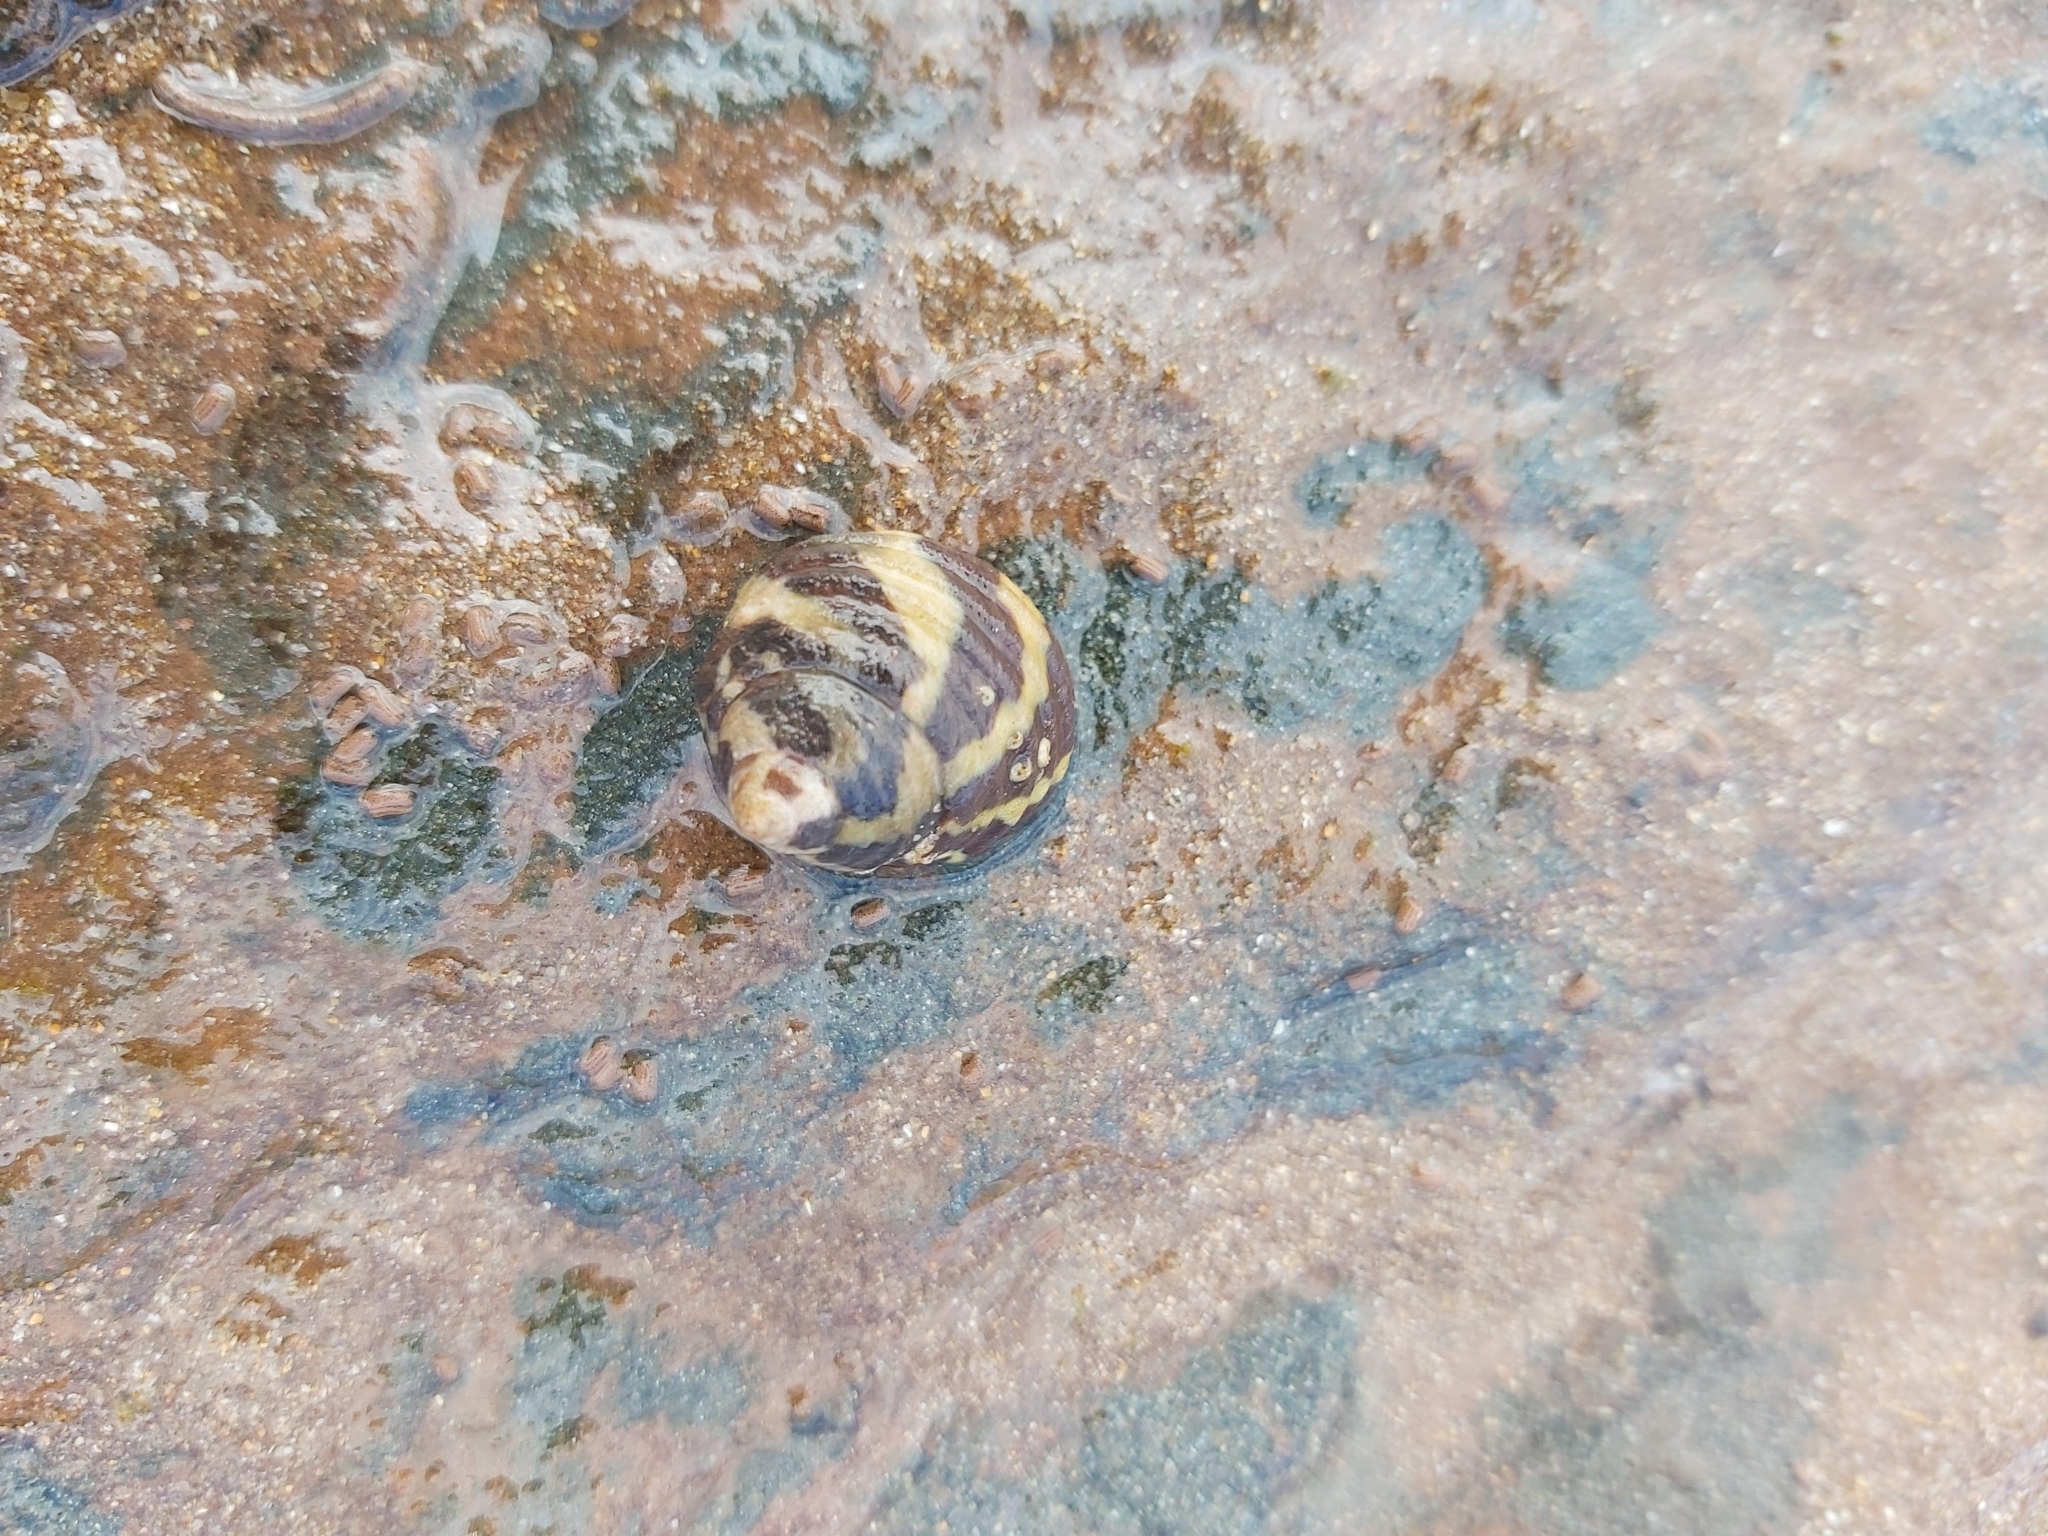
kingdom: Animalia
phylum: Mollusca
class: Gastropoda
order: Trochida
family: Trochidae
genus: Austrocochlea
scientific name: Austrocochlea porcata
